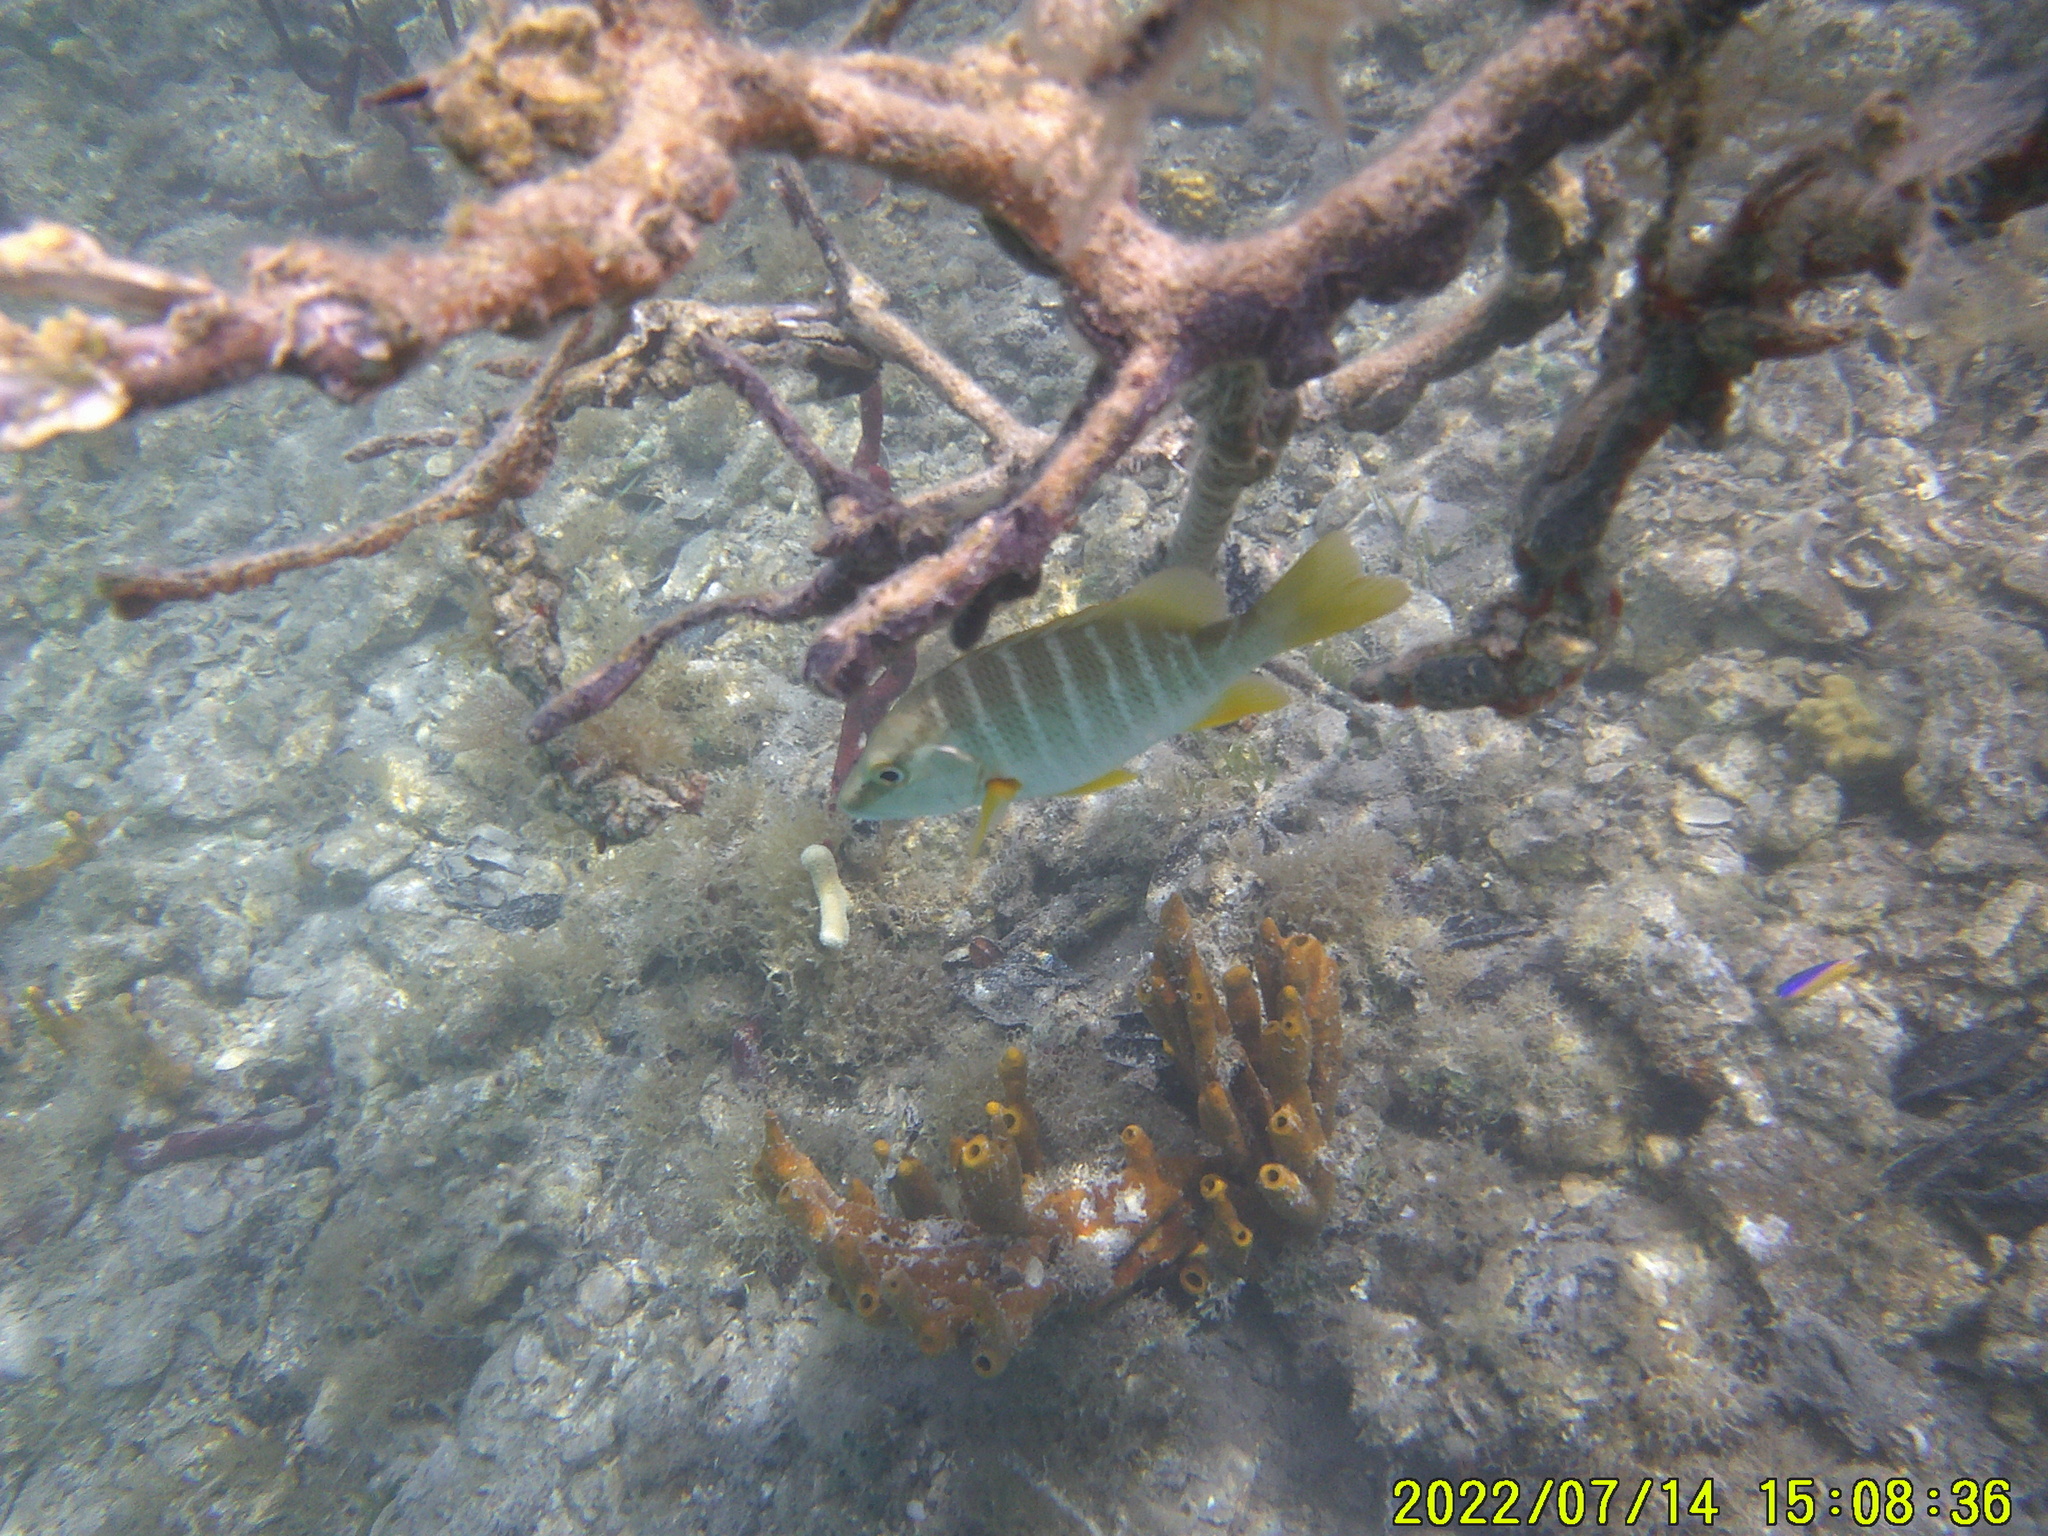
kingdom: Animalia
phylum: Chordata
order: Perciformes
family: Lutjanidae
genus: Lutjanus
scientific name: Lutjanus apodus
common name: Schoolmaster
